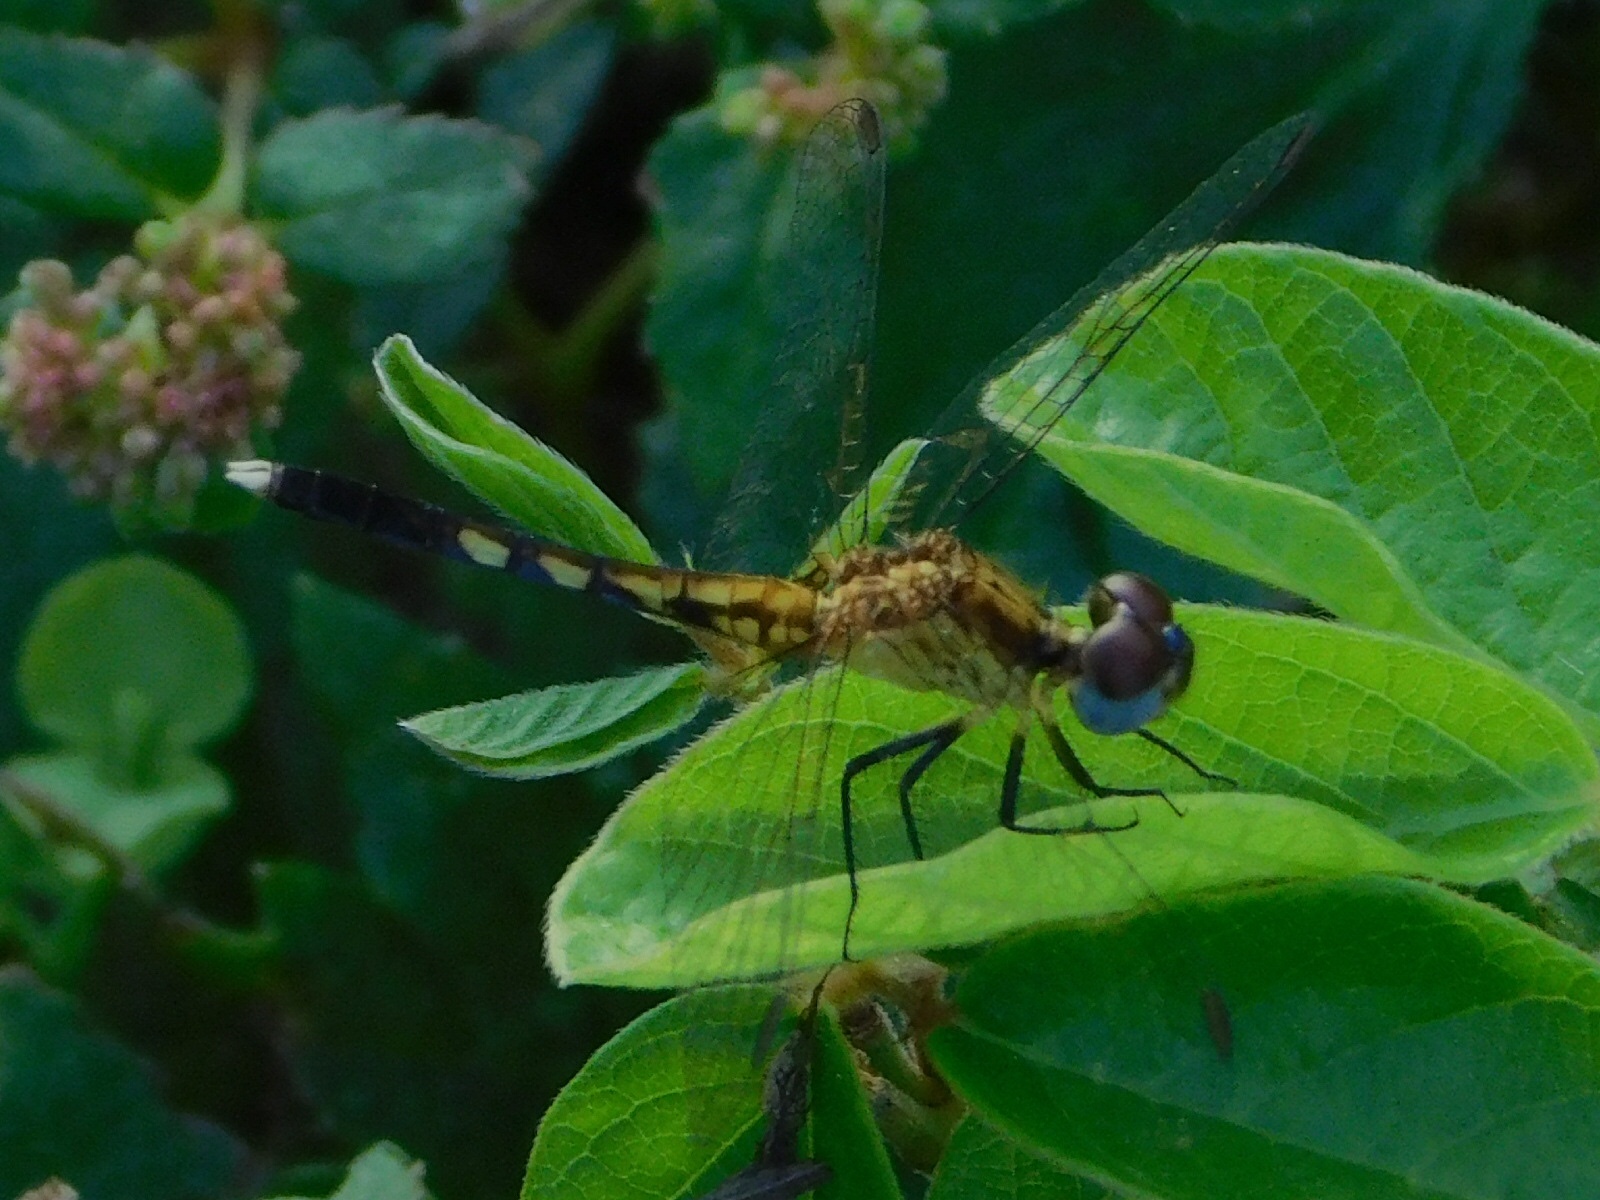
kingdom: Animalia
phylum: Arthropoda
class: Insecta
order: Odonata
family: Libellulidae
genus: Erythrodiplax
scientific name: Erythrodiplax minuscula
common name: Little blue dragonlet
